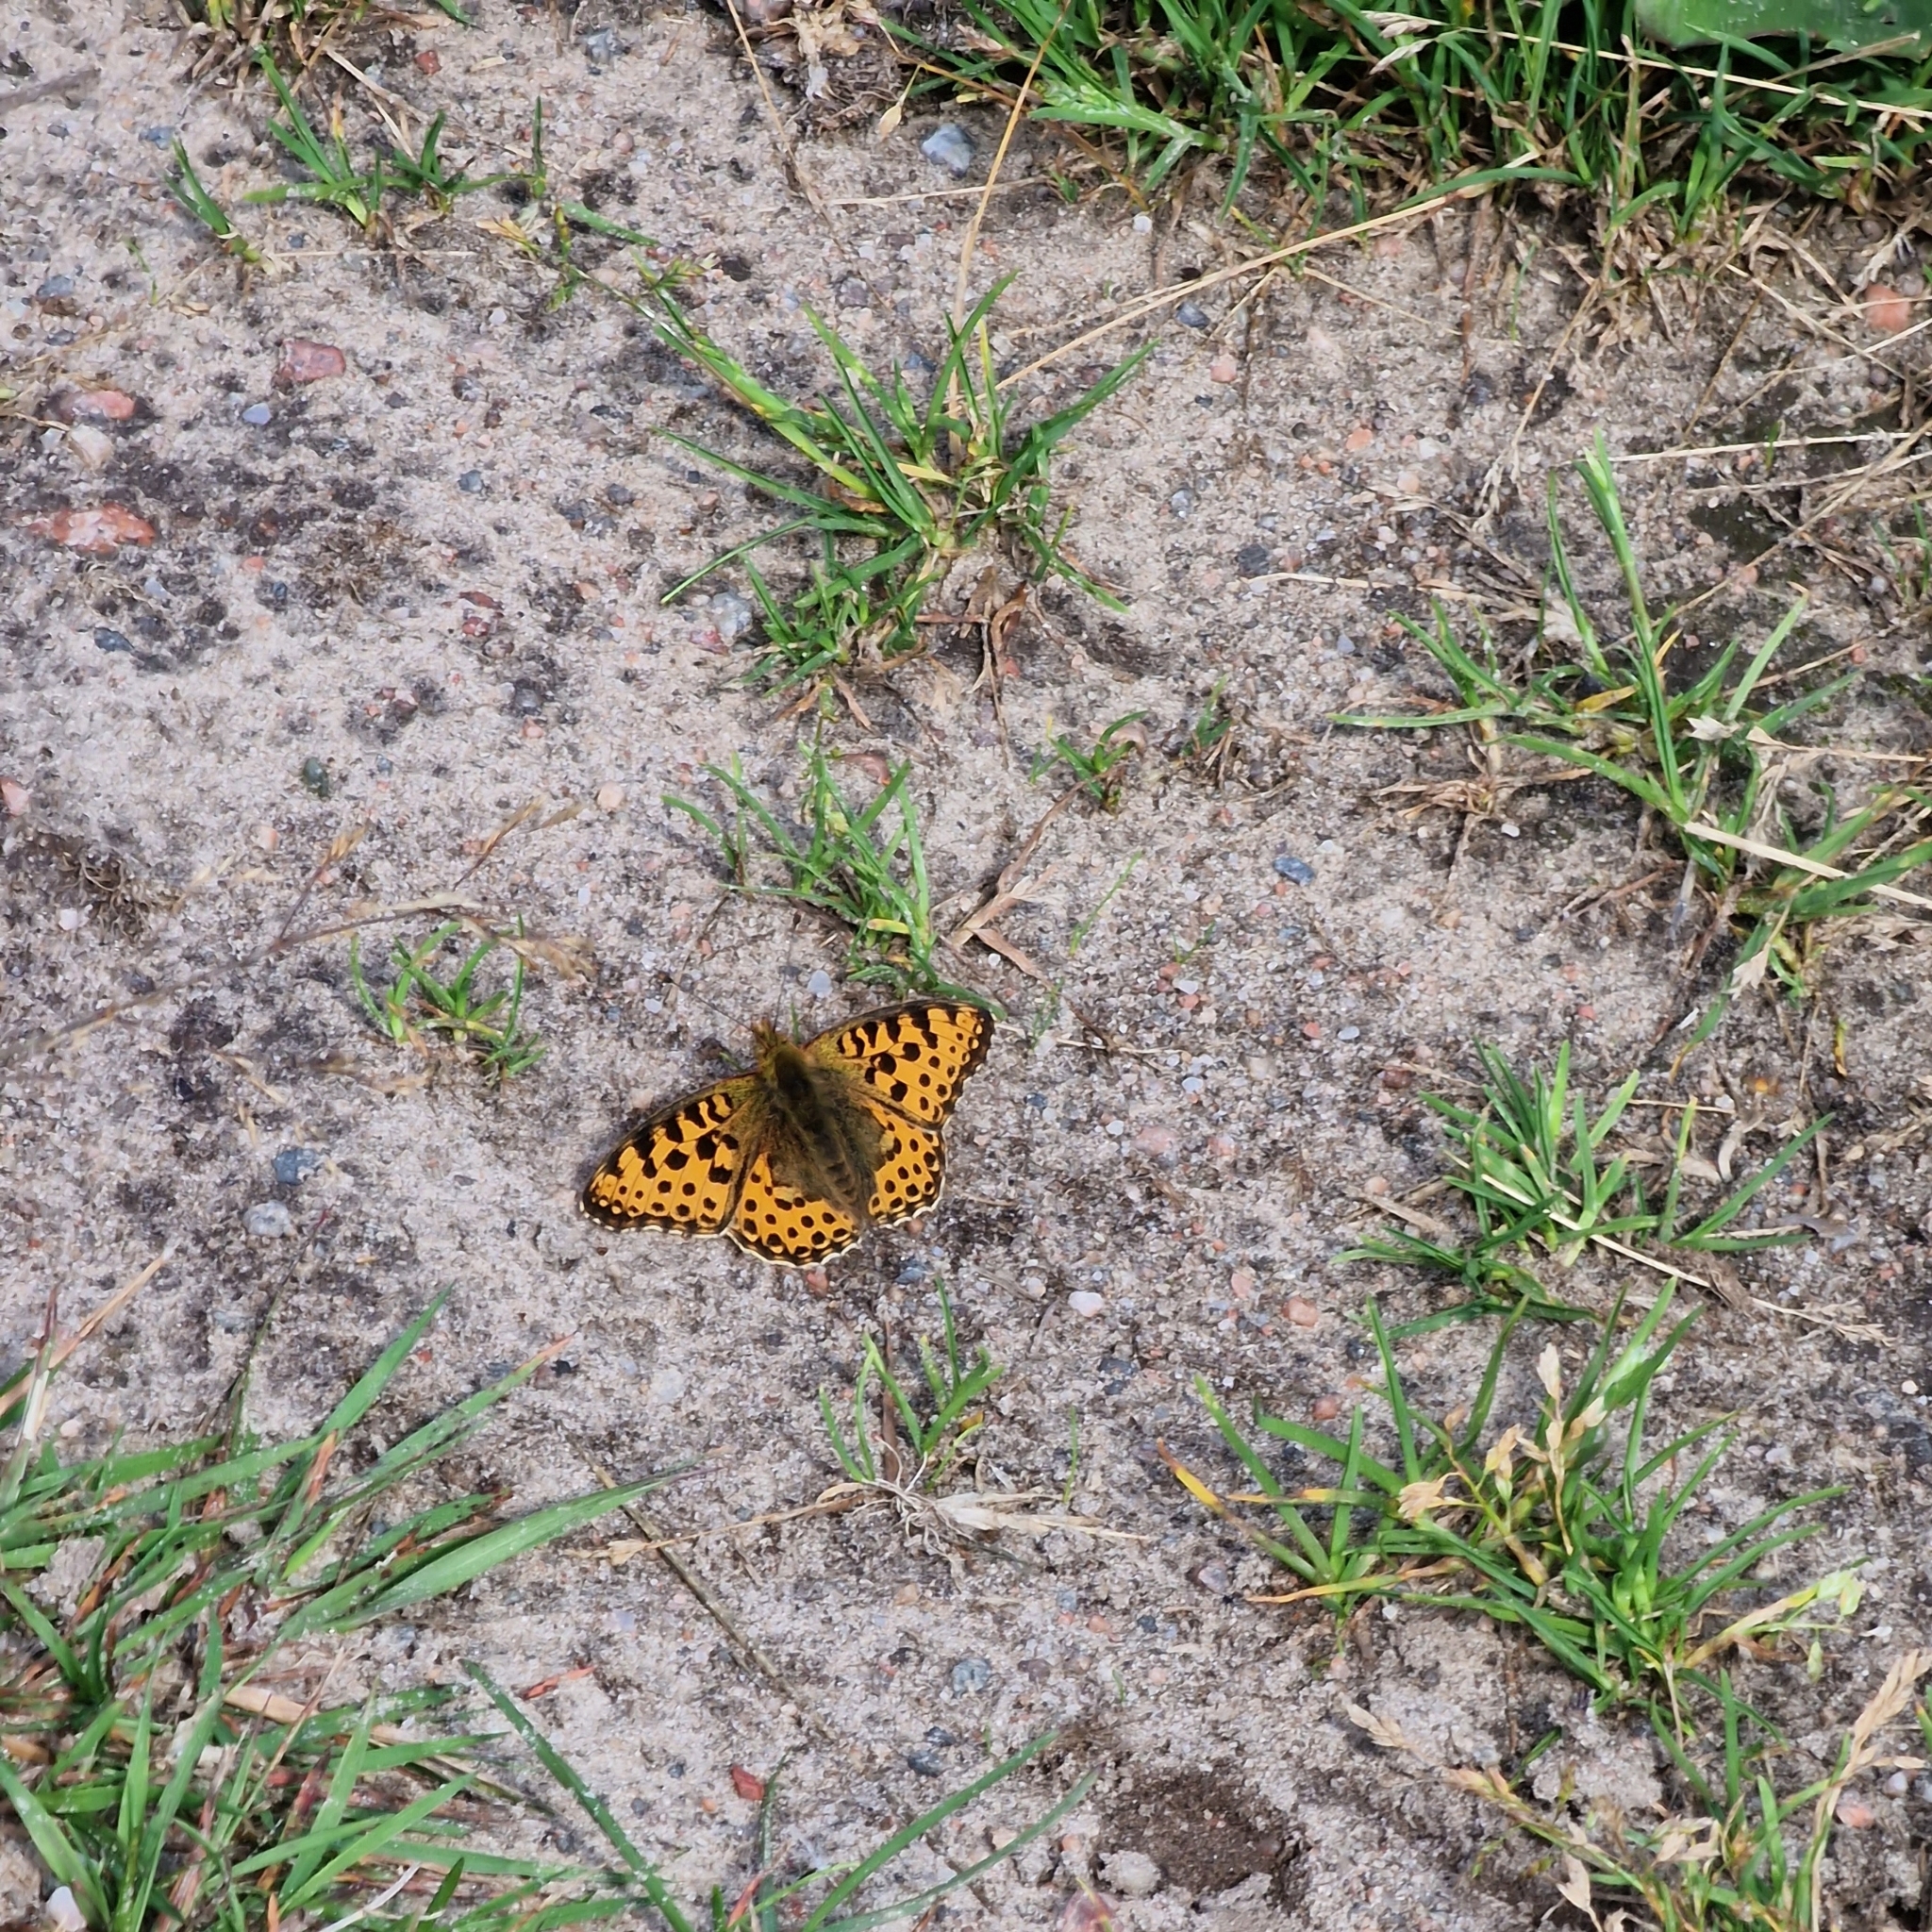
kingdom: Animalia
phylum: Arthropoda
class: Insecta
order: Lepidoptera
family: Nymphalidae
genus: Issoria
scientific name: Issoria lathonia
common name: Queen of spain fritillary
